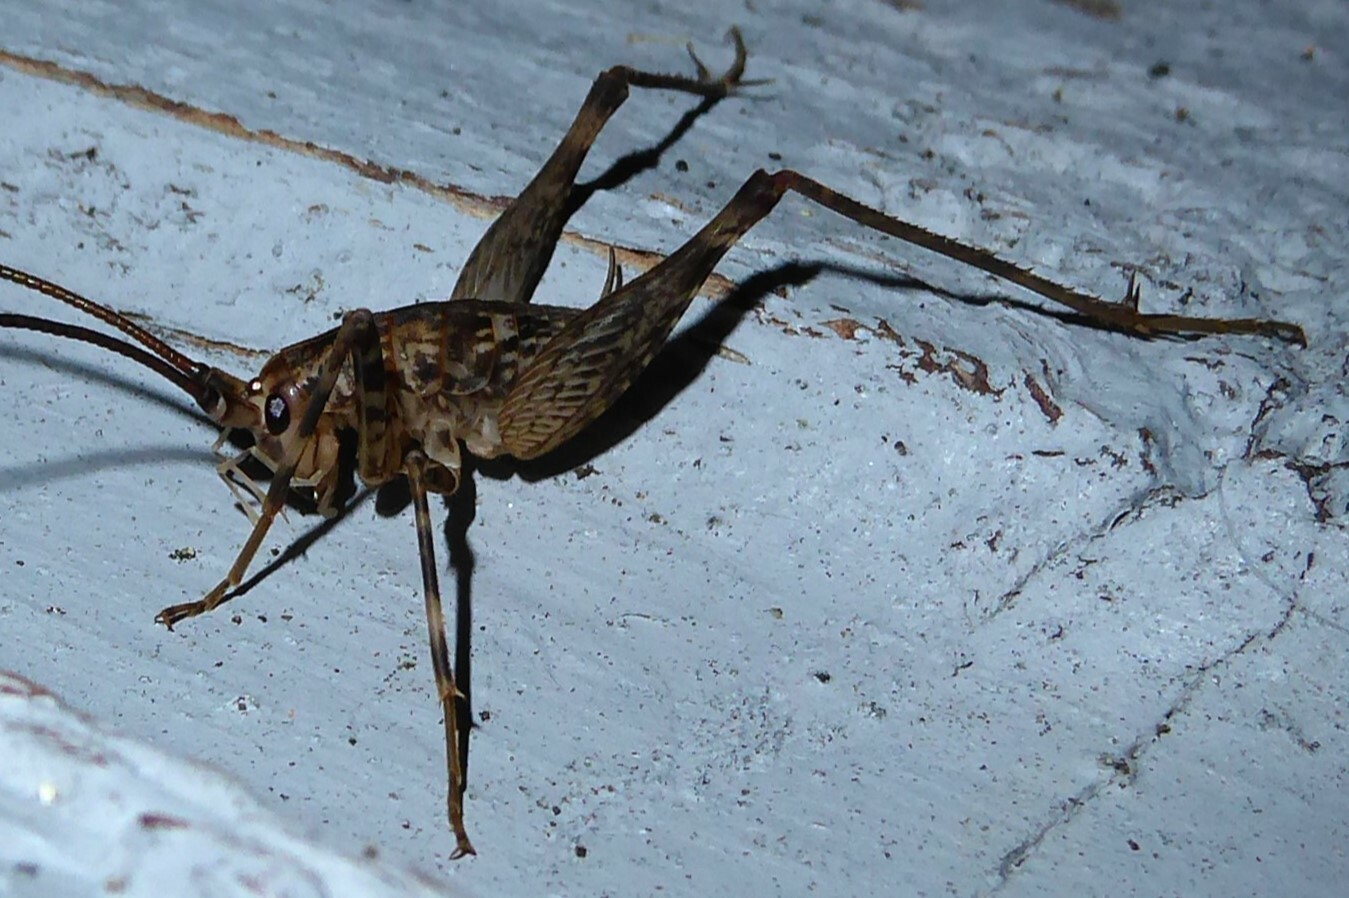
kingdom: Animalia
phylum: Arthropoda
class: Insecta
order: Orthoptera
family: Rhaphidophoridae
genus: Pleioplectron
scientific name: Pleioplectron simplex
